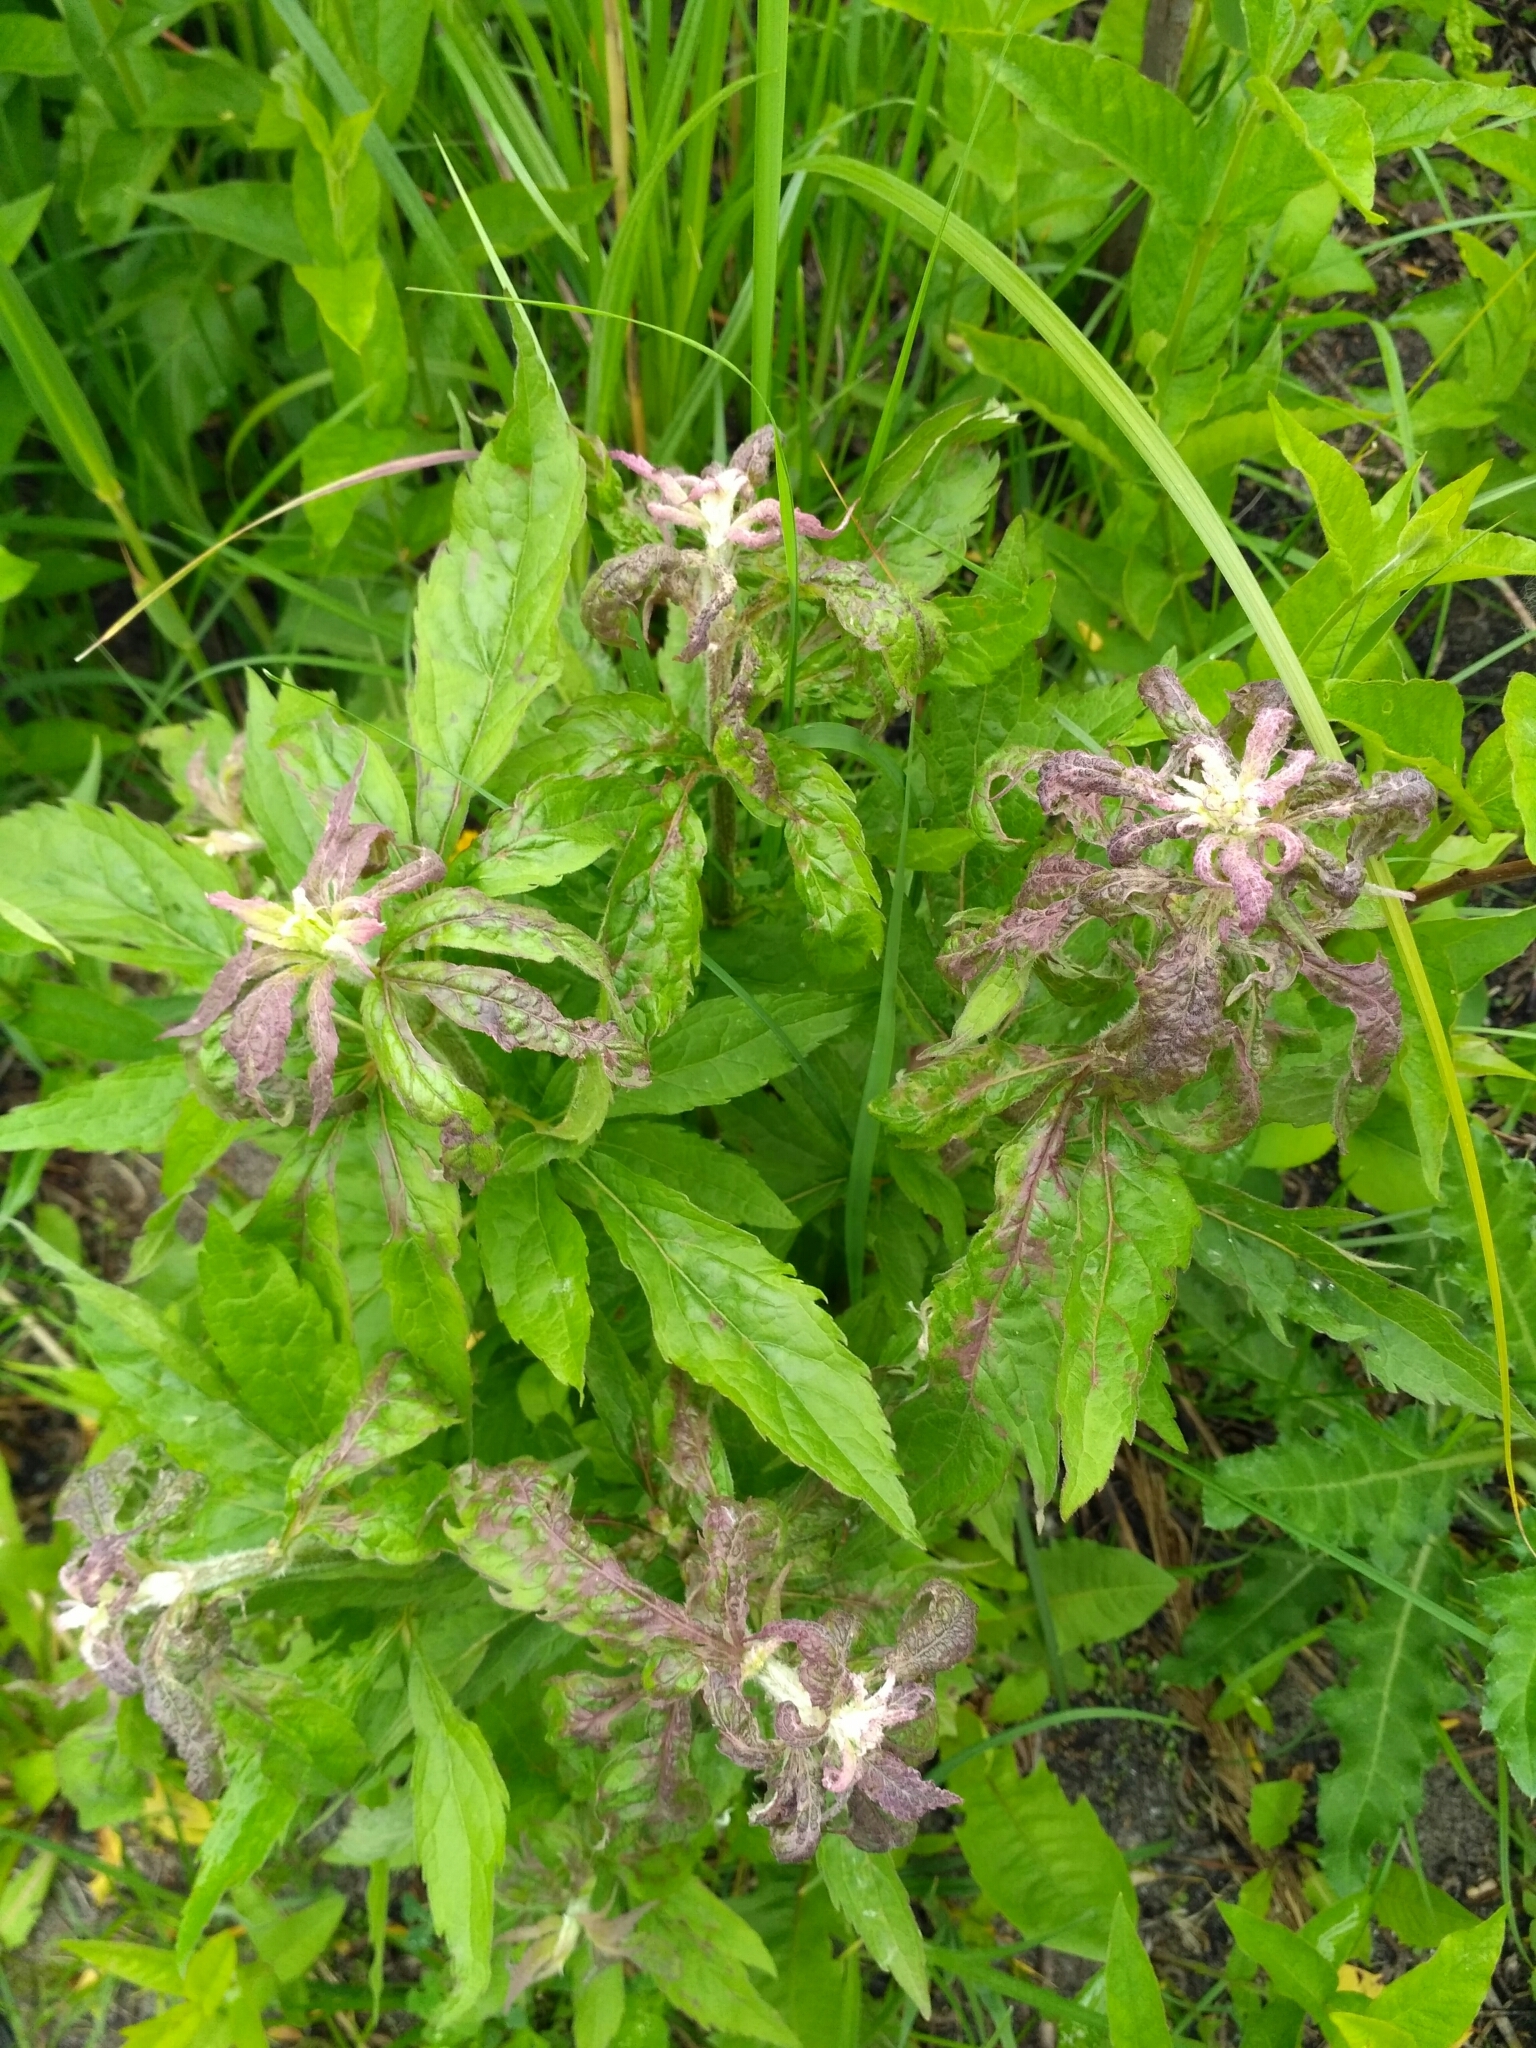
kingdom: Plantae
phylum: Tracheophyta
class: Magnoliopsida
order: Asterales
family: Asteraceae
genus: Eupatorium
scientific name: Eupatorium cannabinum
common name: Hemp-agrimony
